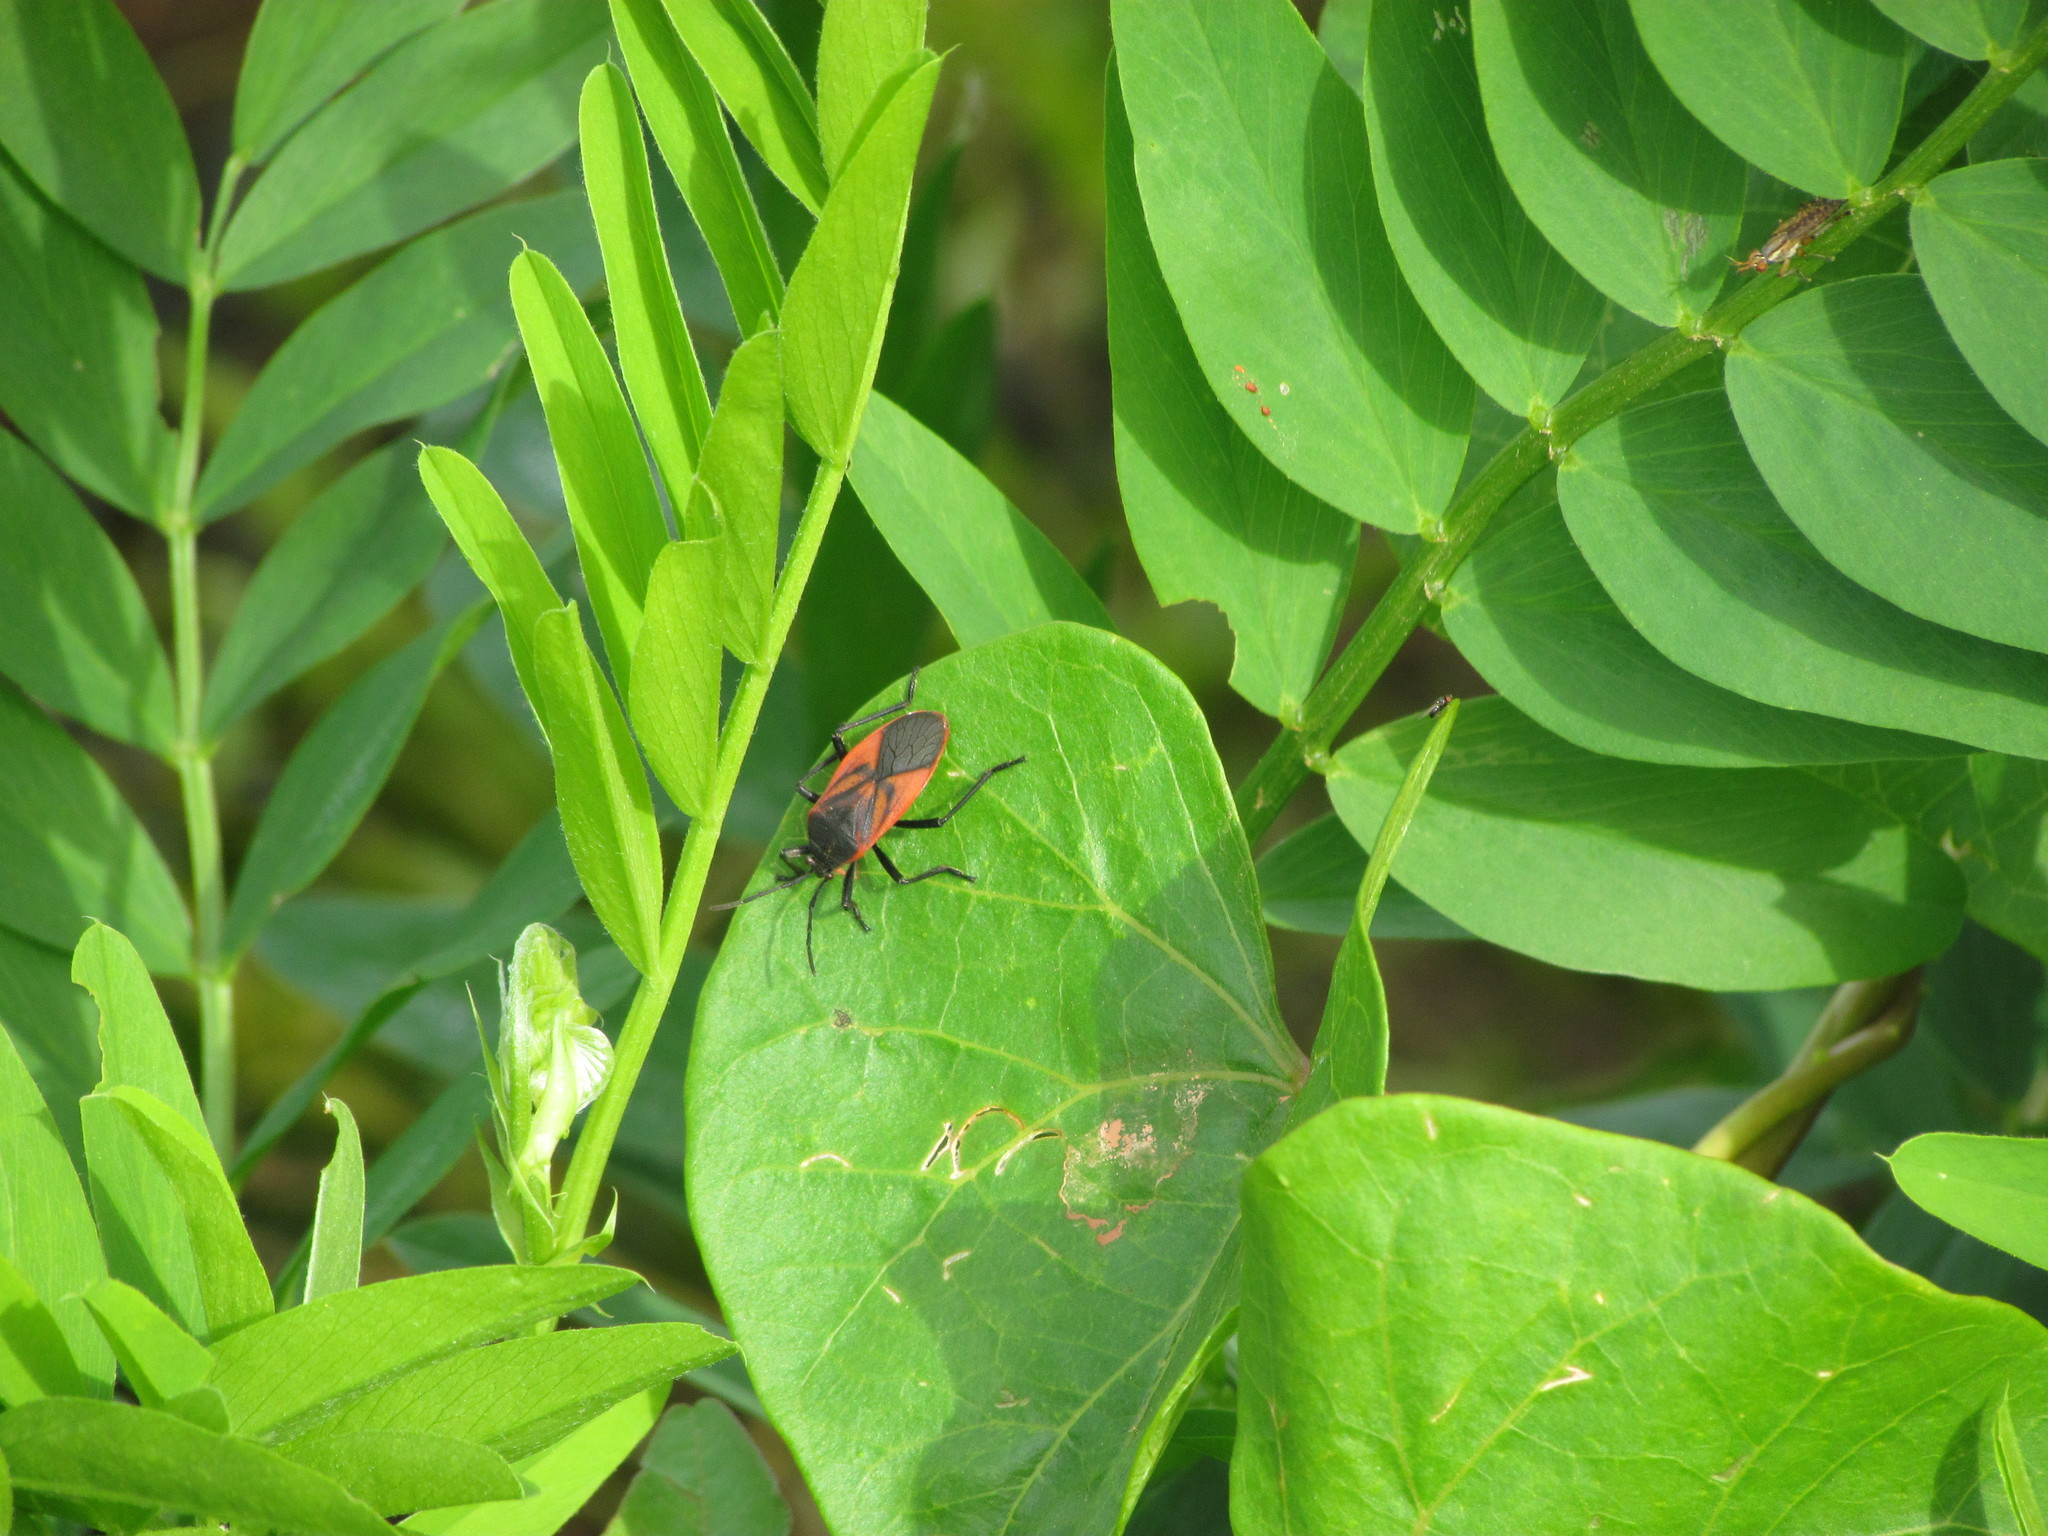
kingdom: Animalia
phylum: Arthropoda
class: Insecta
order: Hemiptera
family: Largidae
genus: Largus
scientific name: Largus rufipennis
